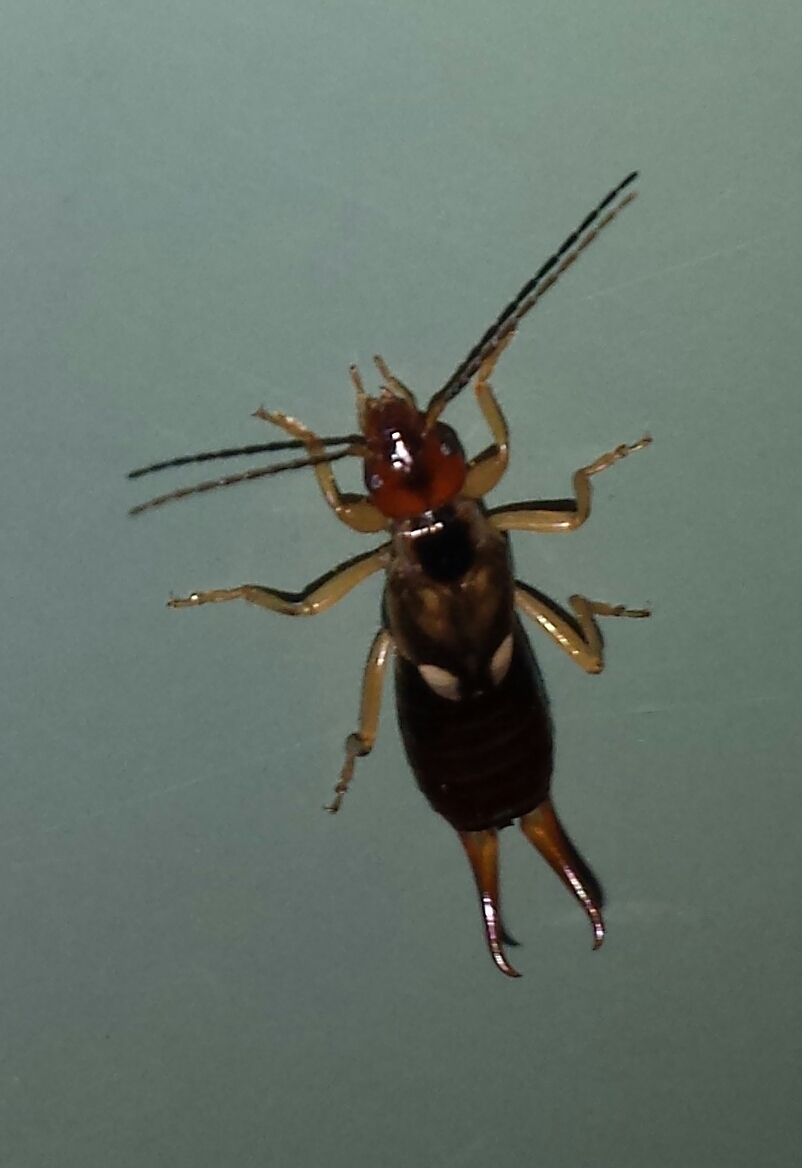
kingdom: Animalia
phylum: Arthropoda
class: Insecta
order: Dermaptera
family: Forficulidae
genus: Forficula
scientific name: Forficula
